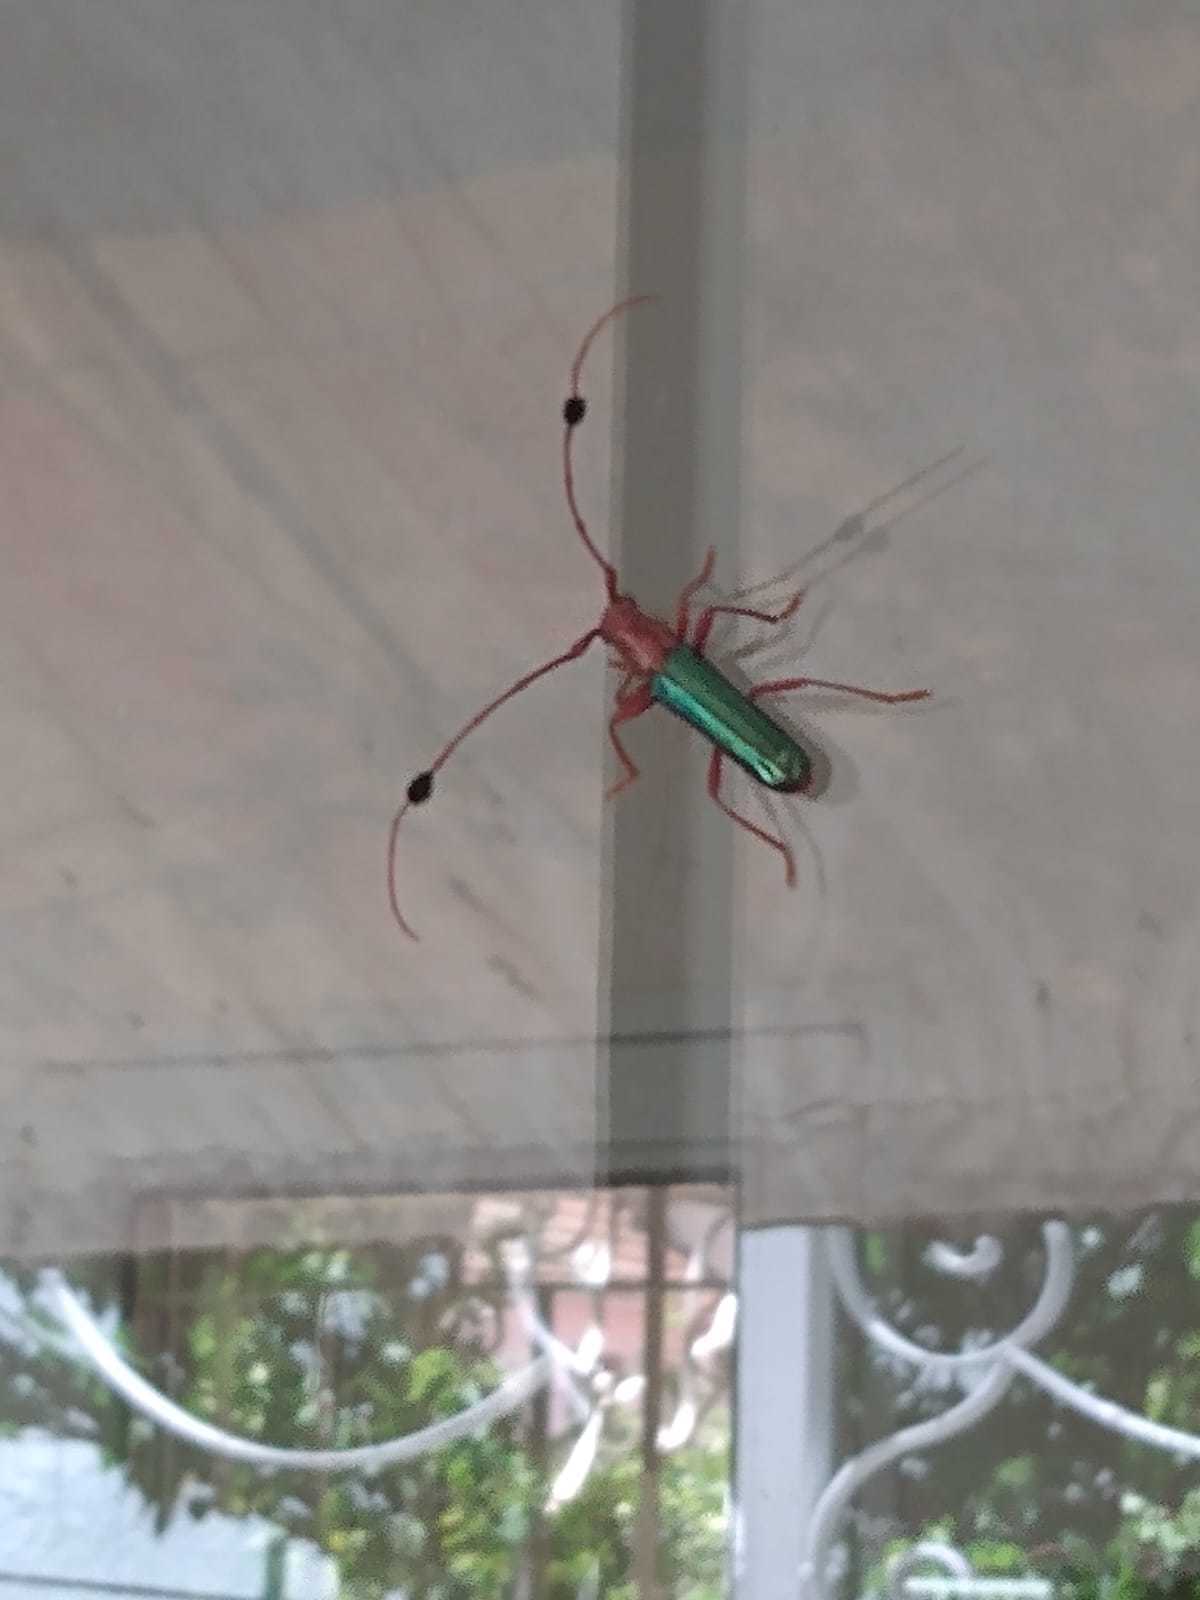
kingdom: Animalia
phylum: Arthropoda
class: Insecta
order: Coleoptera
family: Cerambycidae
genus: Compsocerus
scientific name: Compsocerus violaceus
